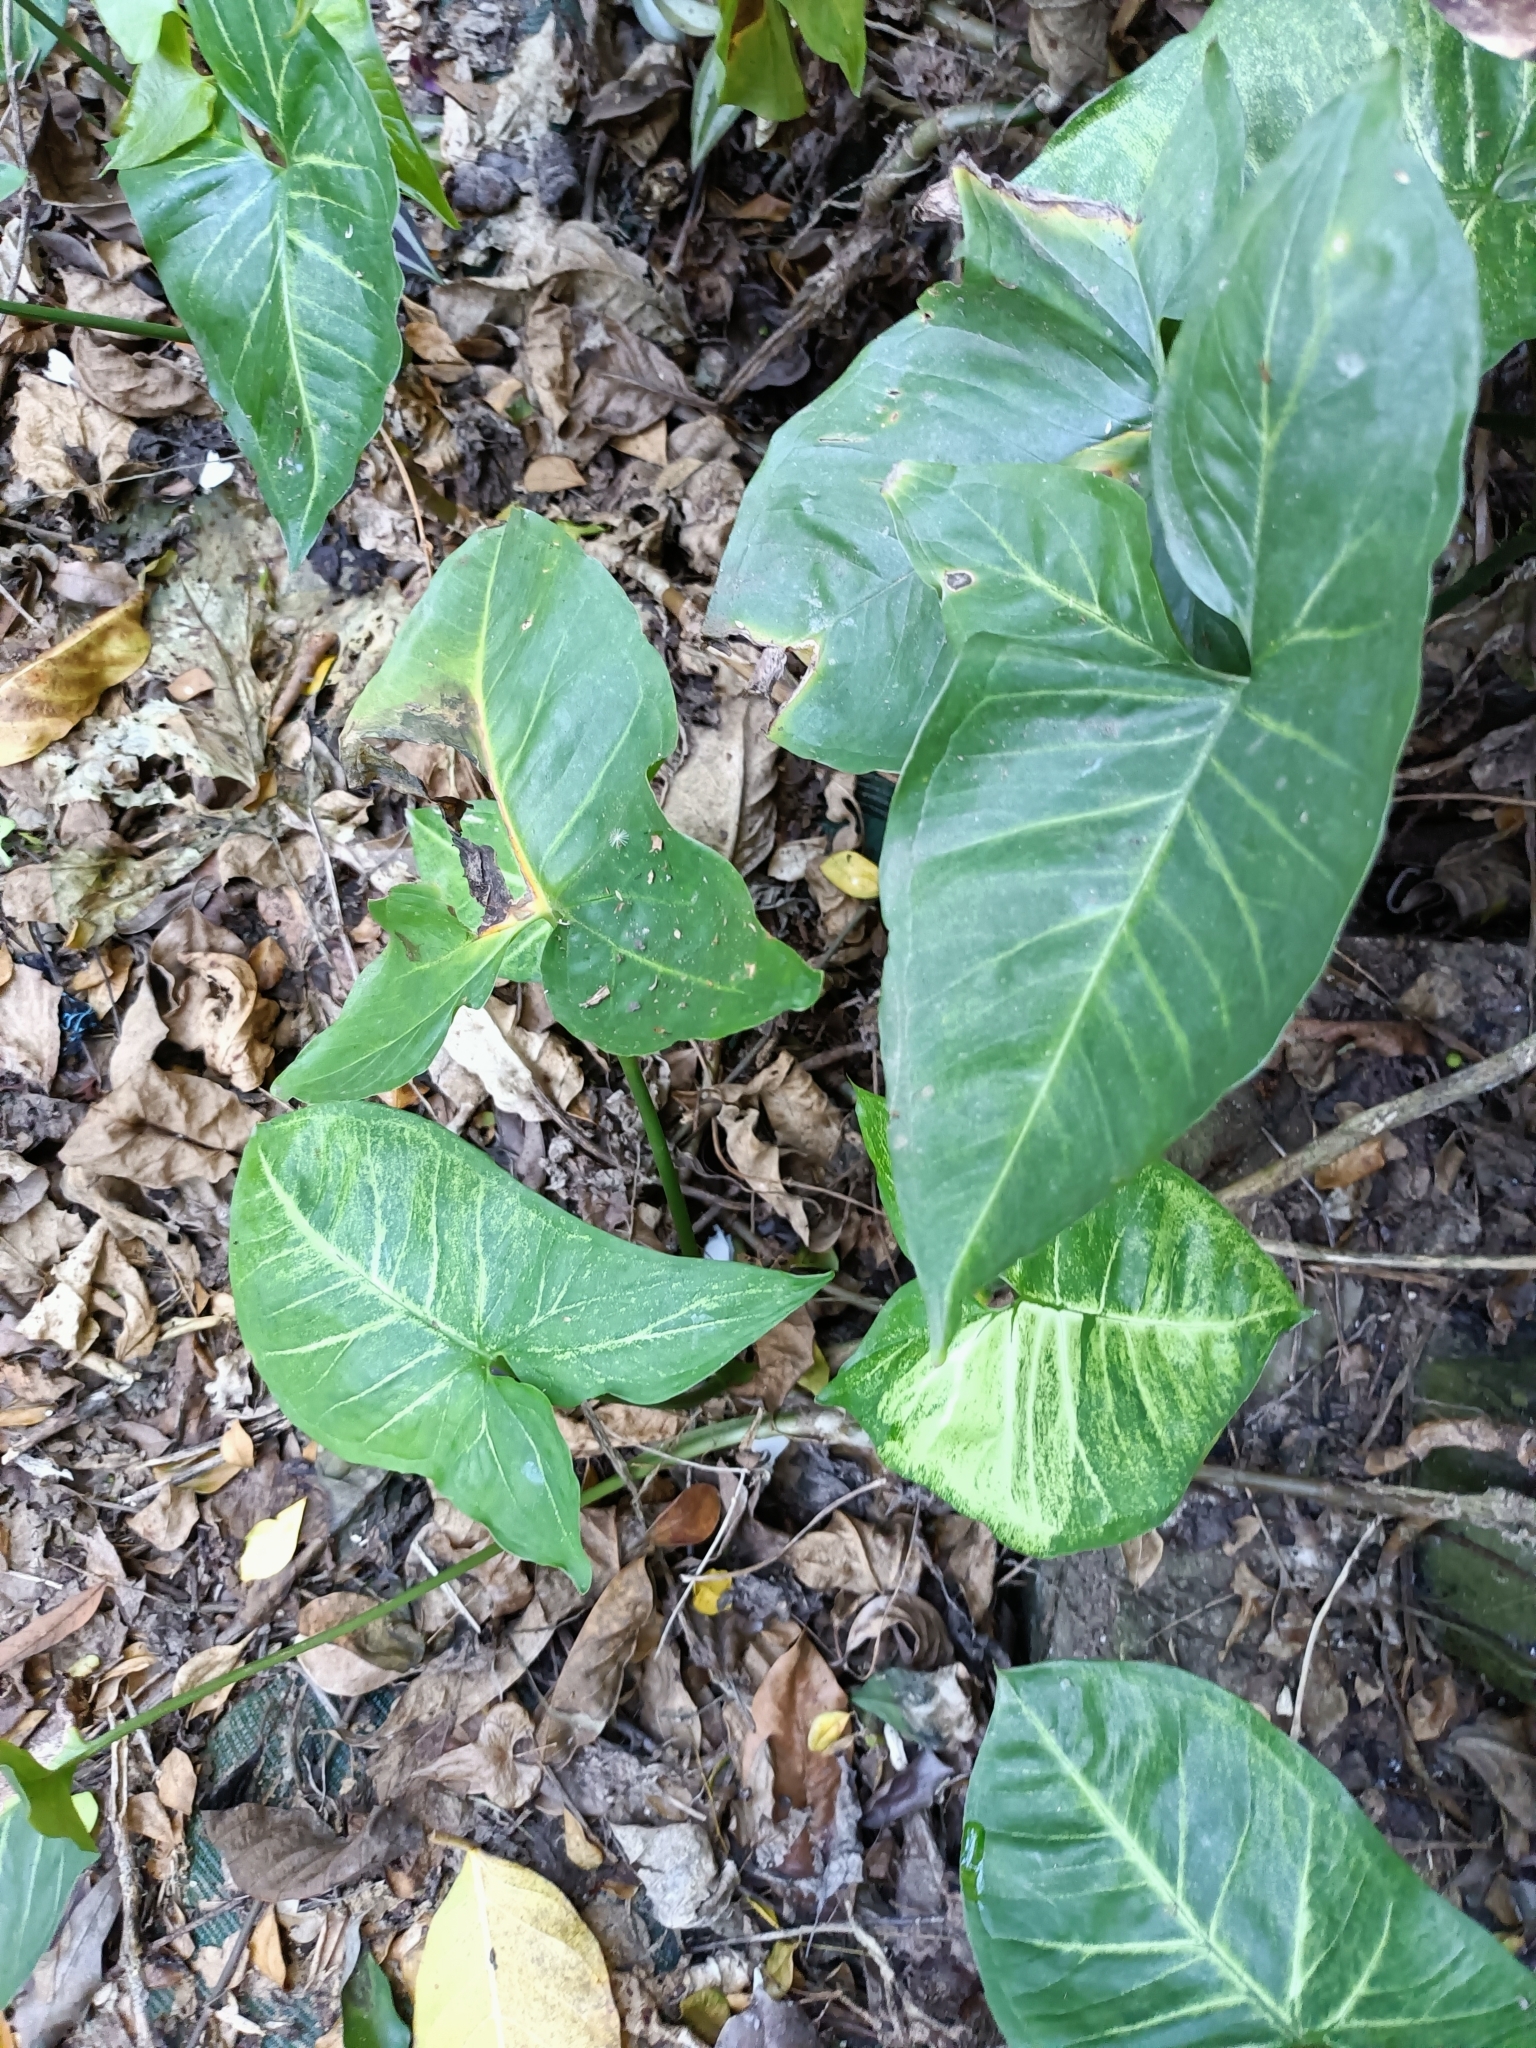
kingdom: Plantae
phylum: Tracheophyta
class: Liliopsida
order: Alismatales
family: Araceae
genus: Syngonium
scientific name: Syngonium podophyllum
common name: American evergreen
